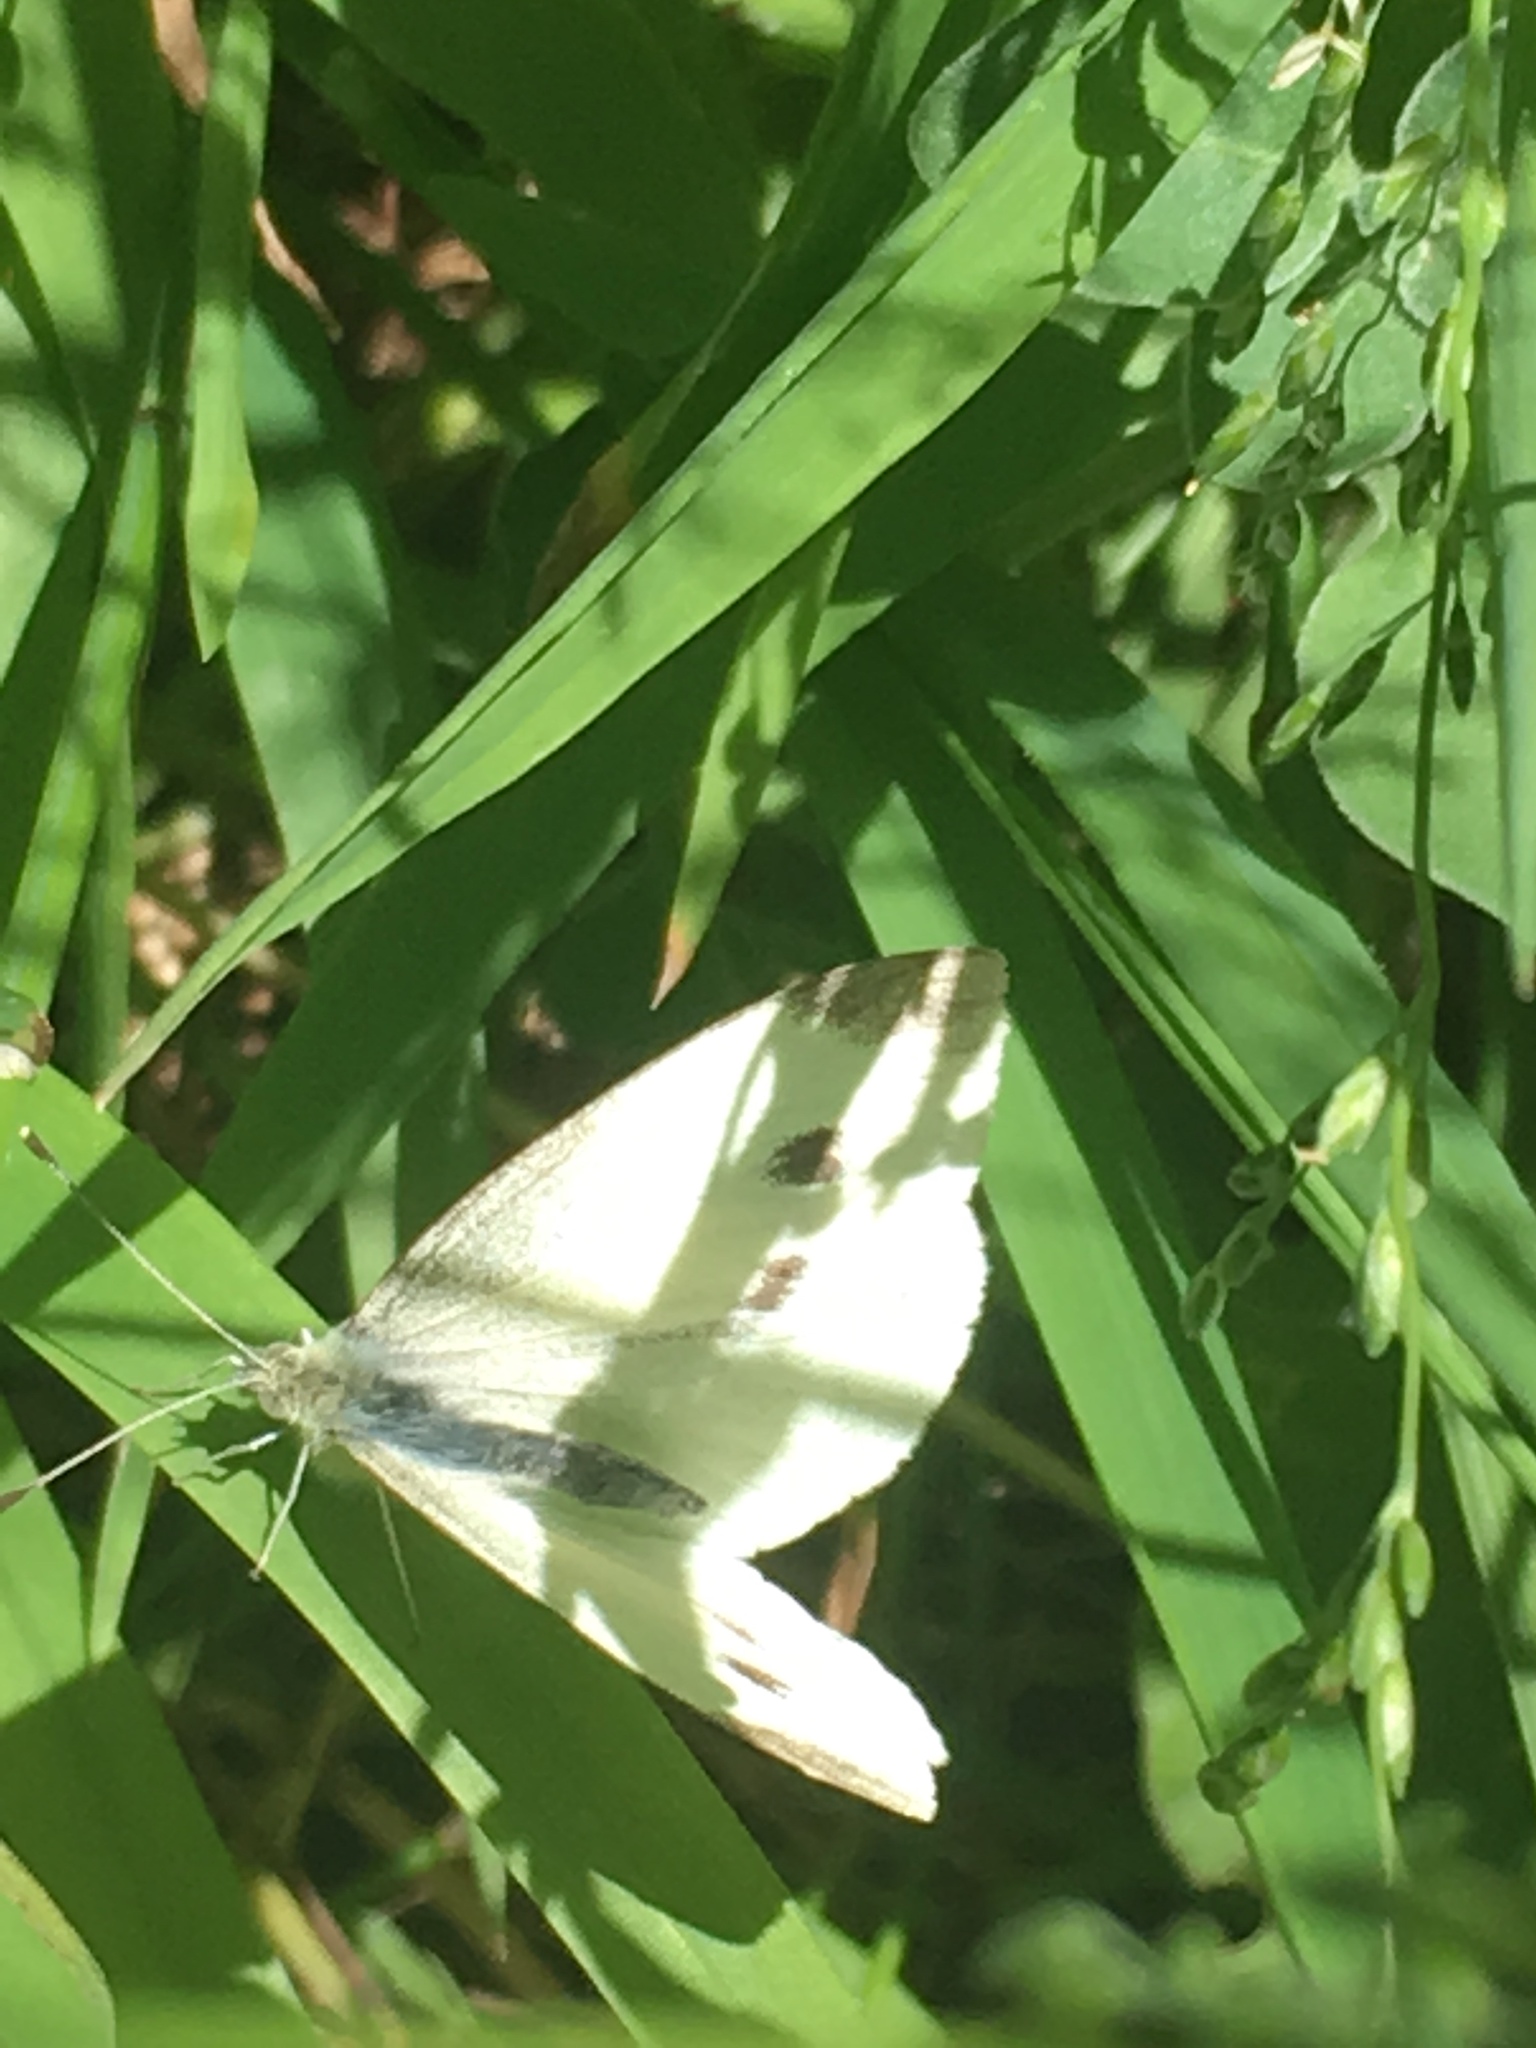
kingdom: Animalia
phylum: Arthropoda
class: Insecta
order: Lepidoptera
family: Pieridae
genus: Pieris
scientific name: Pieris rapae
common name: Small white
